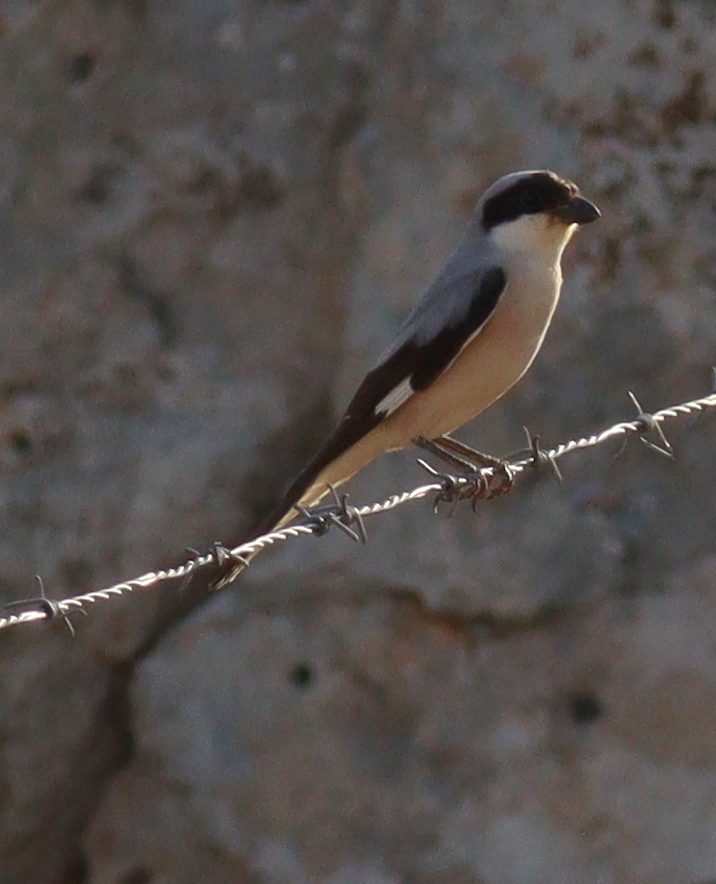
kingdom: Animalia
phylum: Chordata
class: Aves
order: Passeriformes
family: Laniidae
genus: Lanius
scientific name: Lanius minor
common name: Lesser grey shrike
